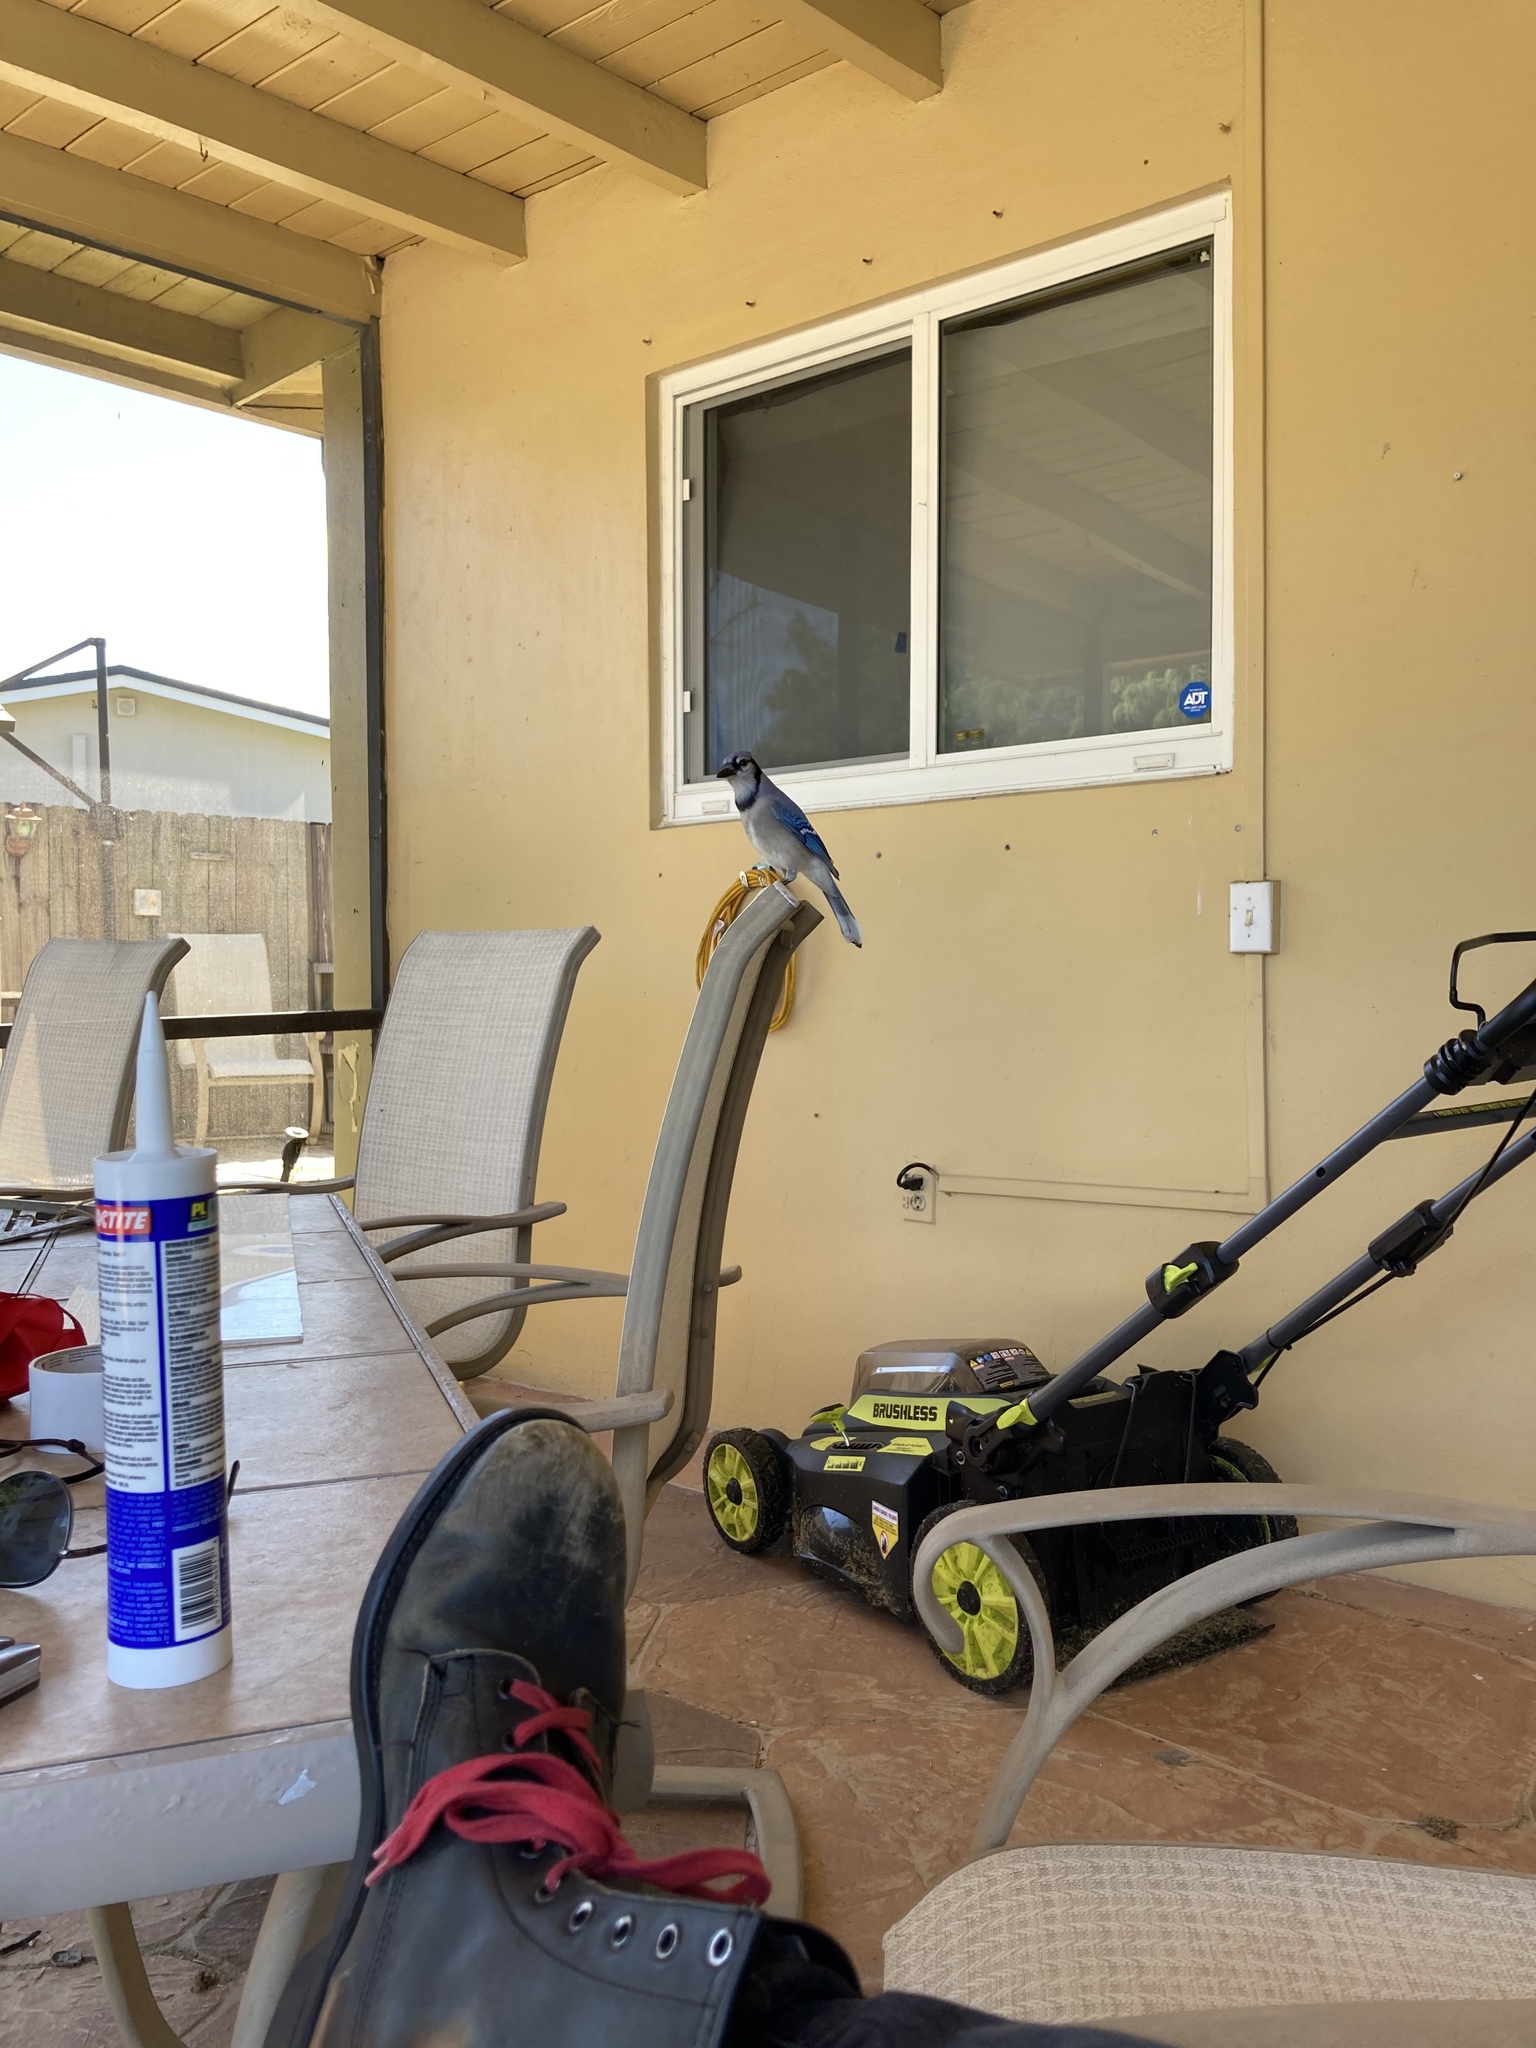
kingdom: Animalia
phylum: Chordata
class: Aves
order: Passeriformes
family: Corvidae
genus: Cyanocitta
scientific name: Cyanocitta cristata
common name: Blue jay
